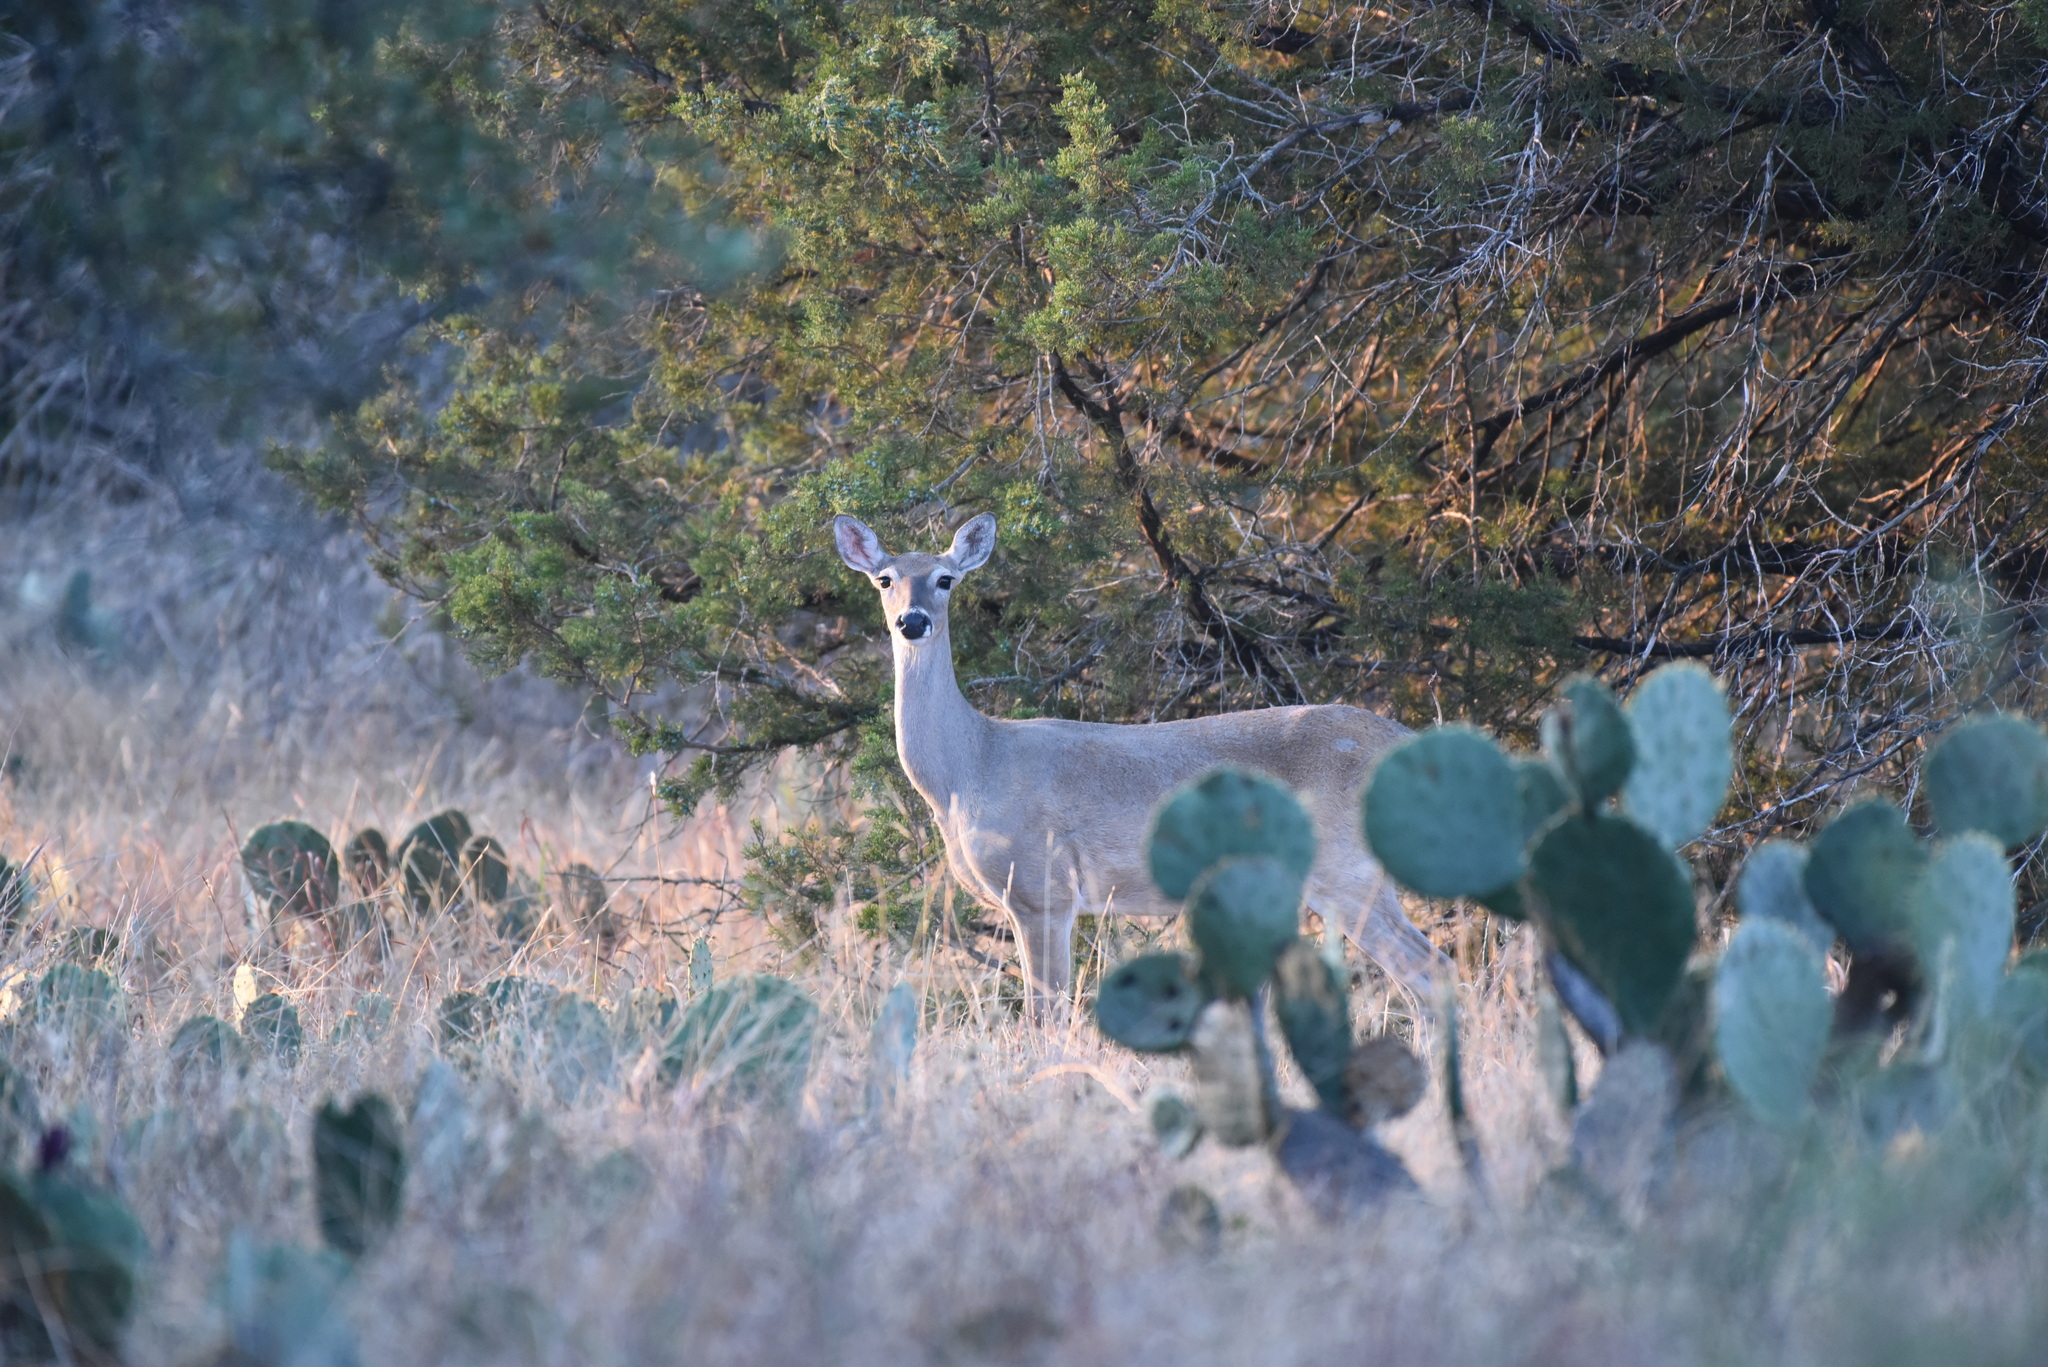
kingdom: Animalia
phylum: Chordata
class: Mammalia
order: Artiodactyla
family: Cervidae
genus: Odocoileus
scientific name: Odocoileus virginianus
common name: White-tailed deer
